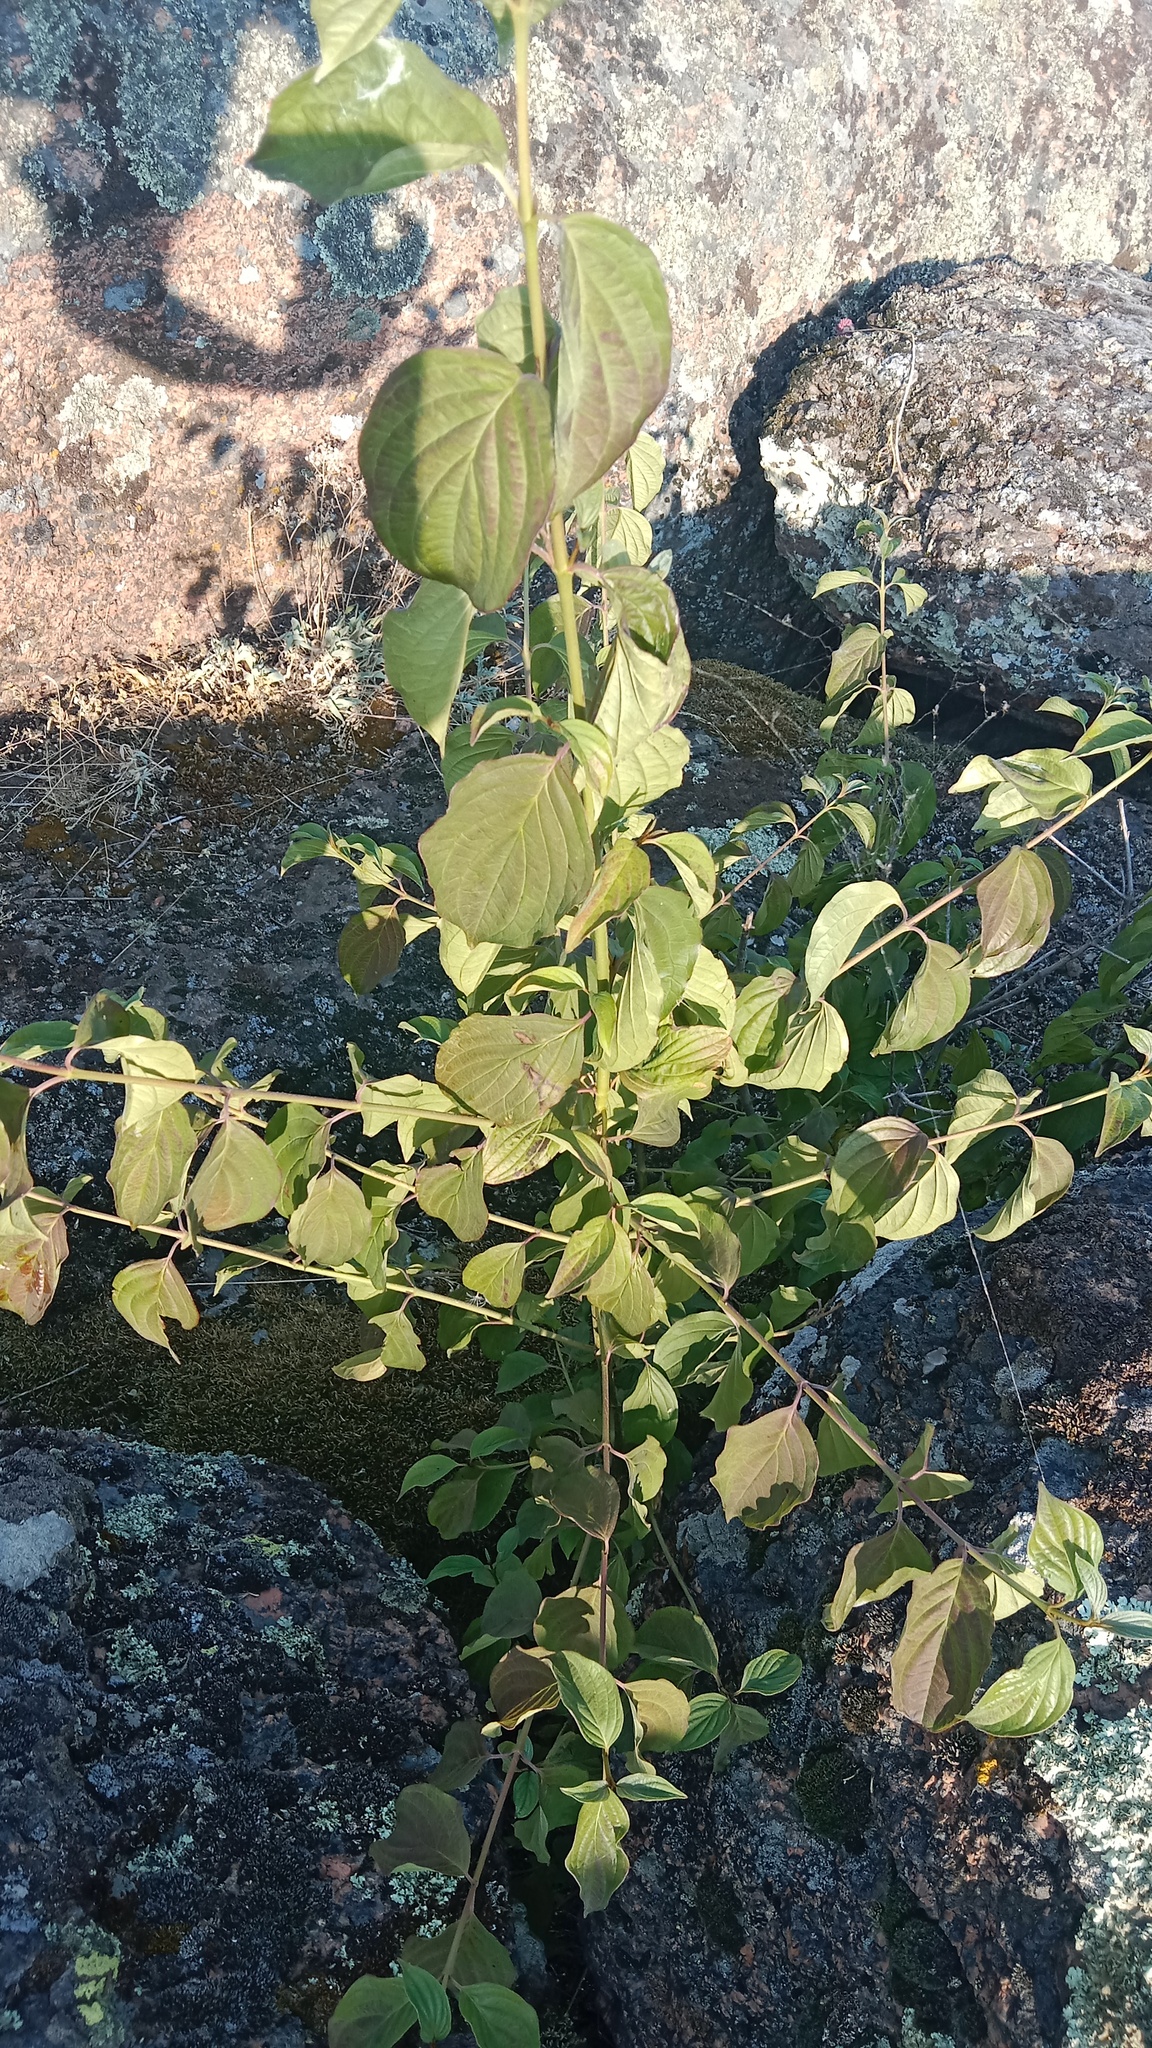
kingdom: Plantae
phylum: Tracheophyta
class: Magnoliopsida
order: Cornales
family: Cornaceae
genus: Cornus
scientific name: Cornus sanguinea
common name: Dogwood
